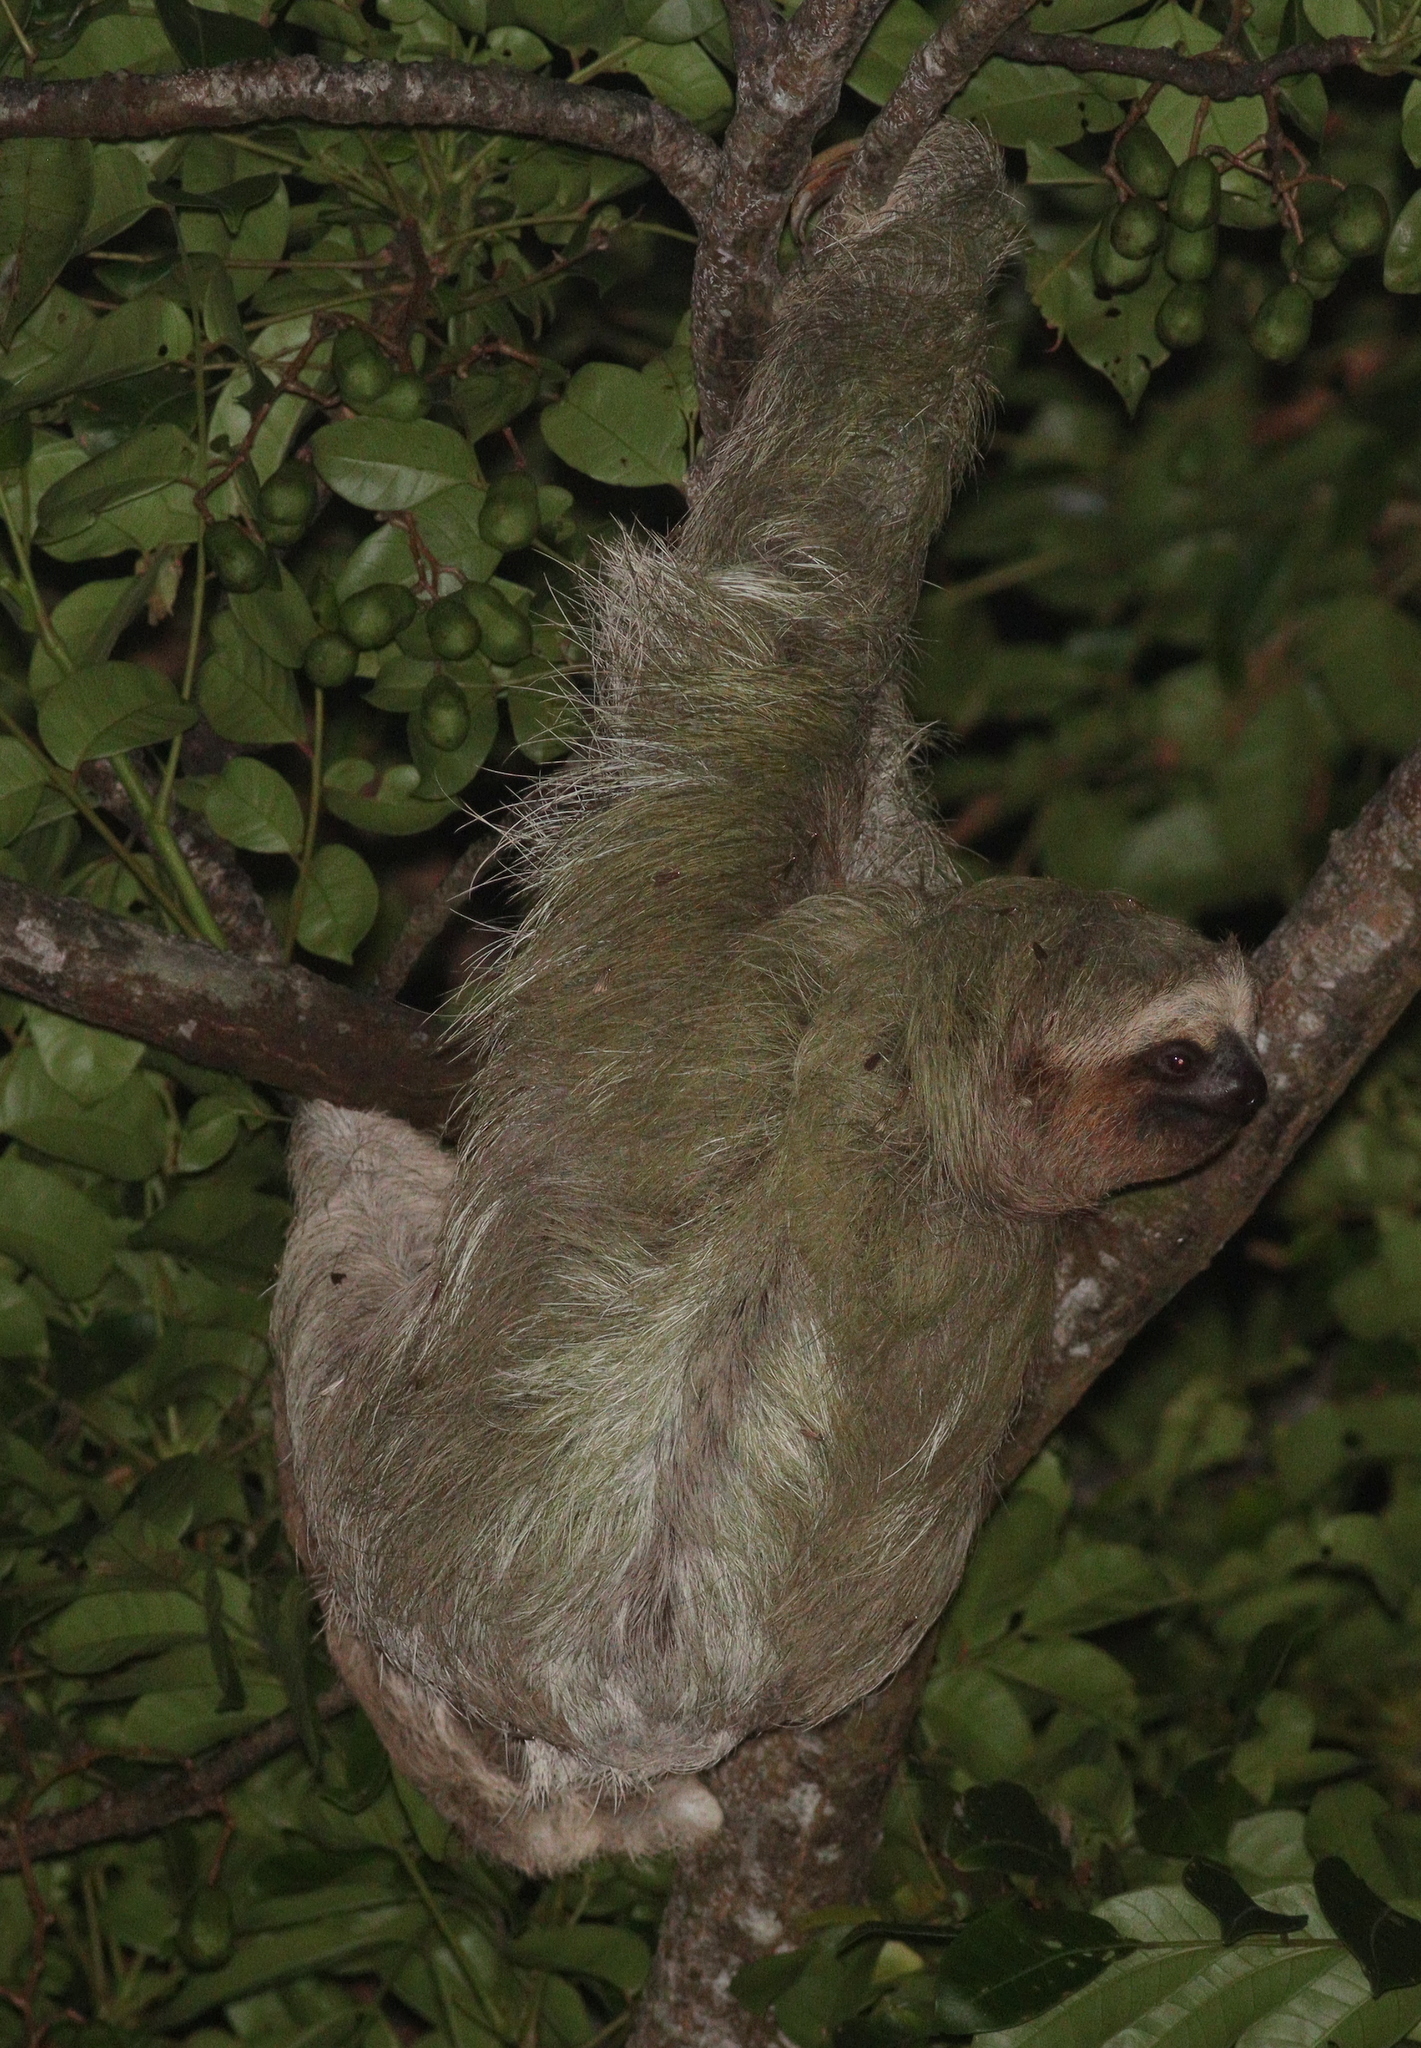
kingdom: Animalia
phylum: Chordata
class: Mammalia
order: Pilosa
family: Bradypodidae
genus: Bradypus
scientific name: Bradypus variegatus
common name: Brown-throated three-toed sloth
